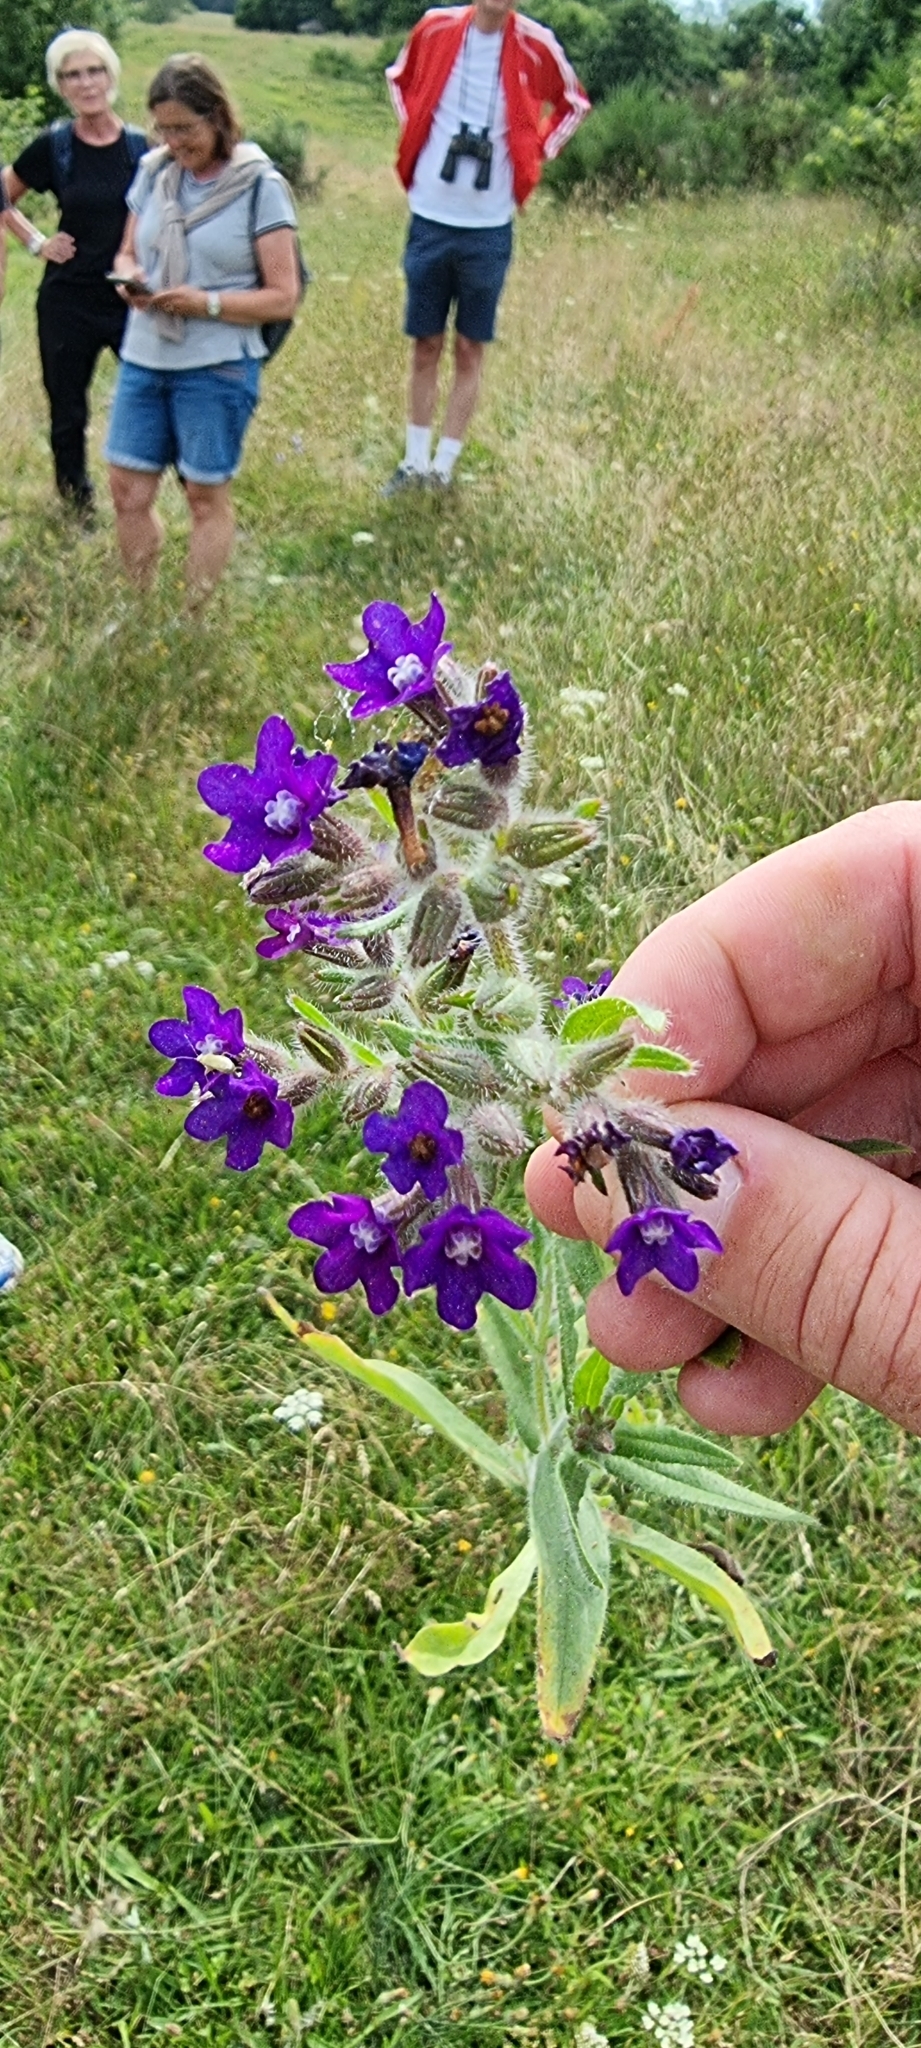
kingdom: Plantae
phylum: Tracheophyta
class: Magnoliopsida
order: Boraginales
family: Boraginaceae
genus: Anchusa
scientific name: Anchusa officinalis
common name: Alkanet
